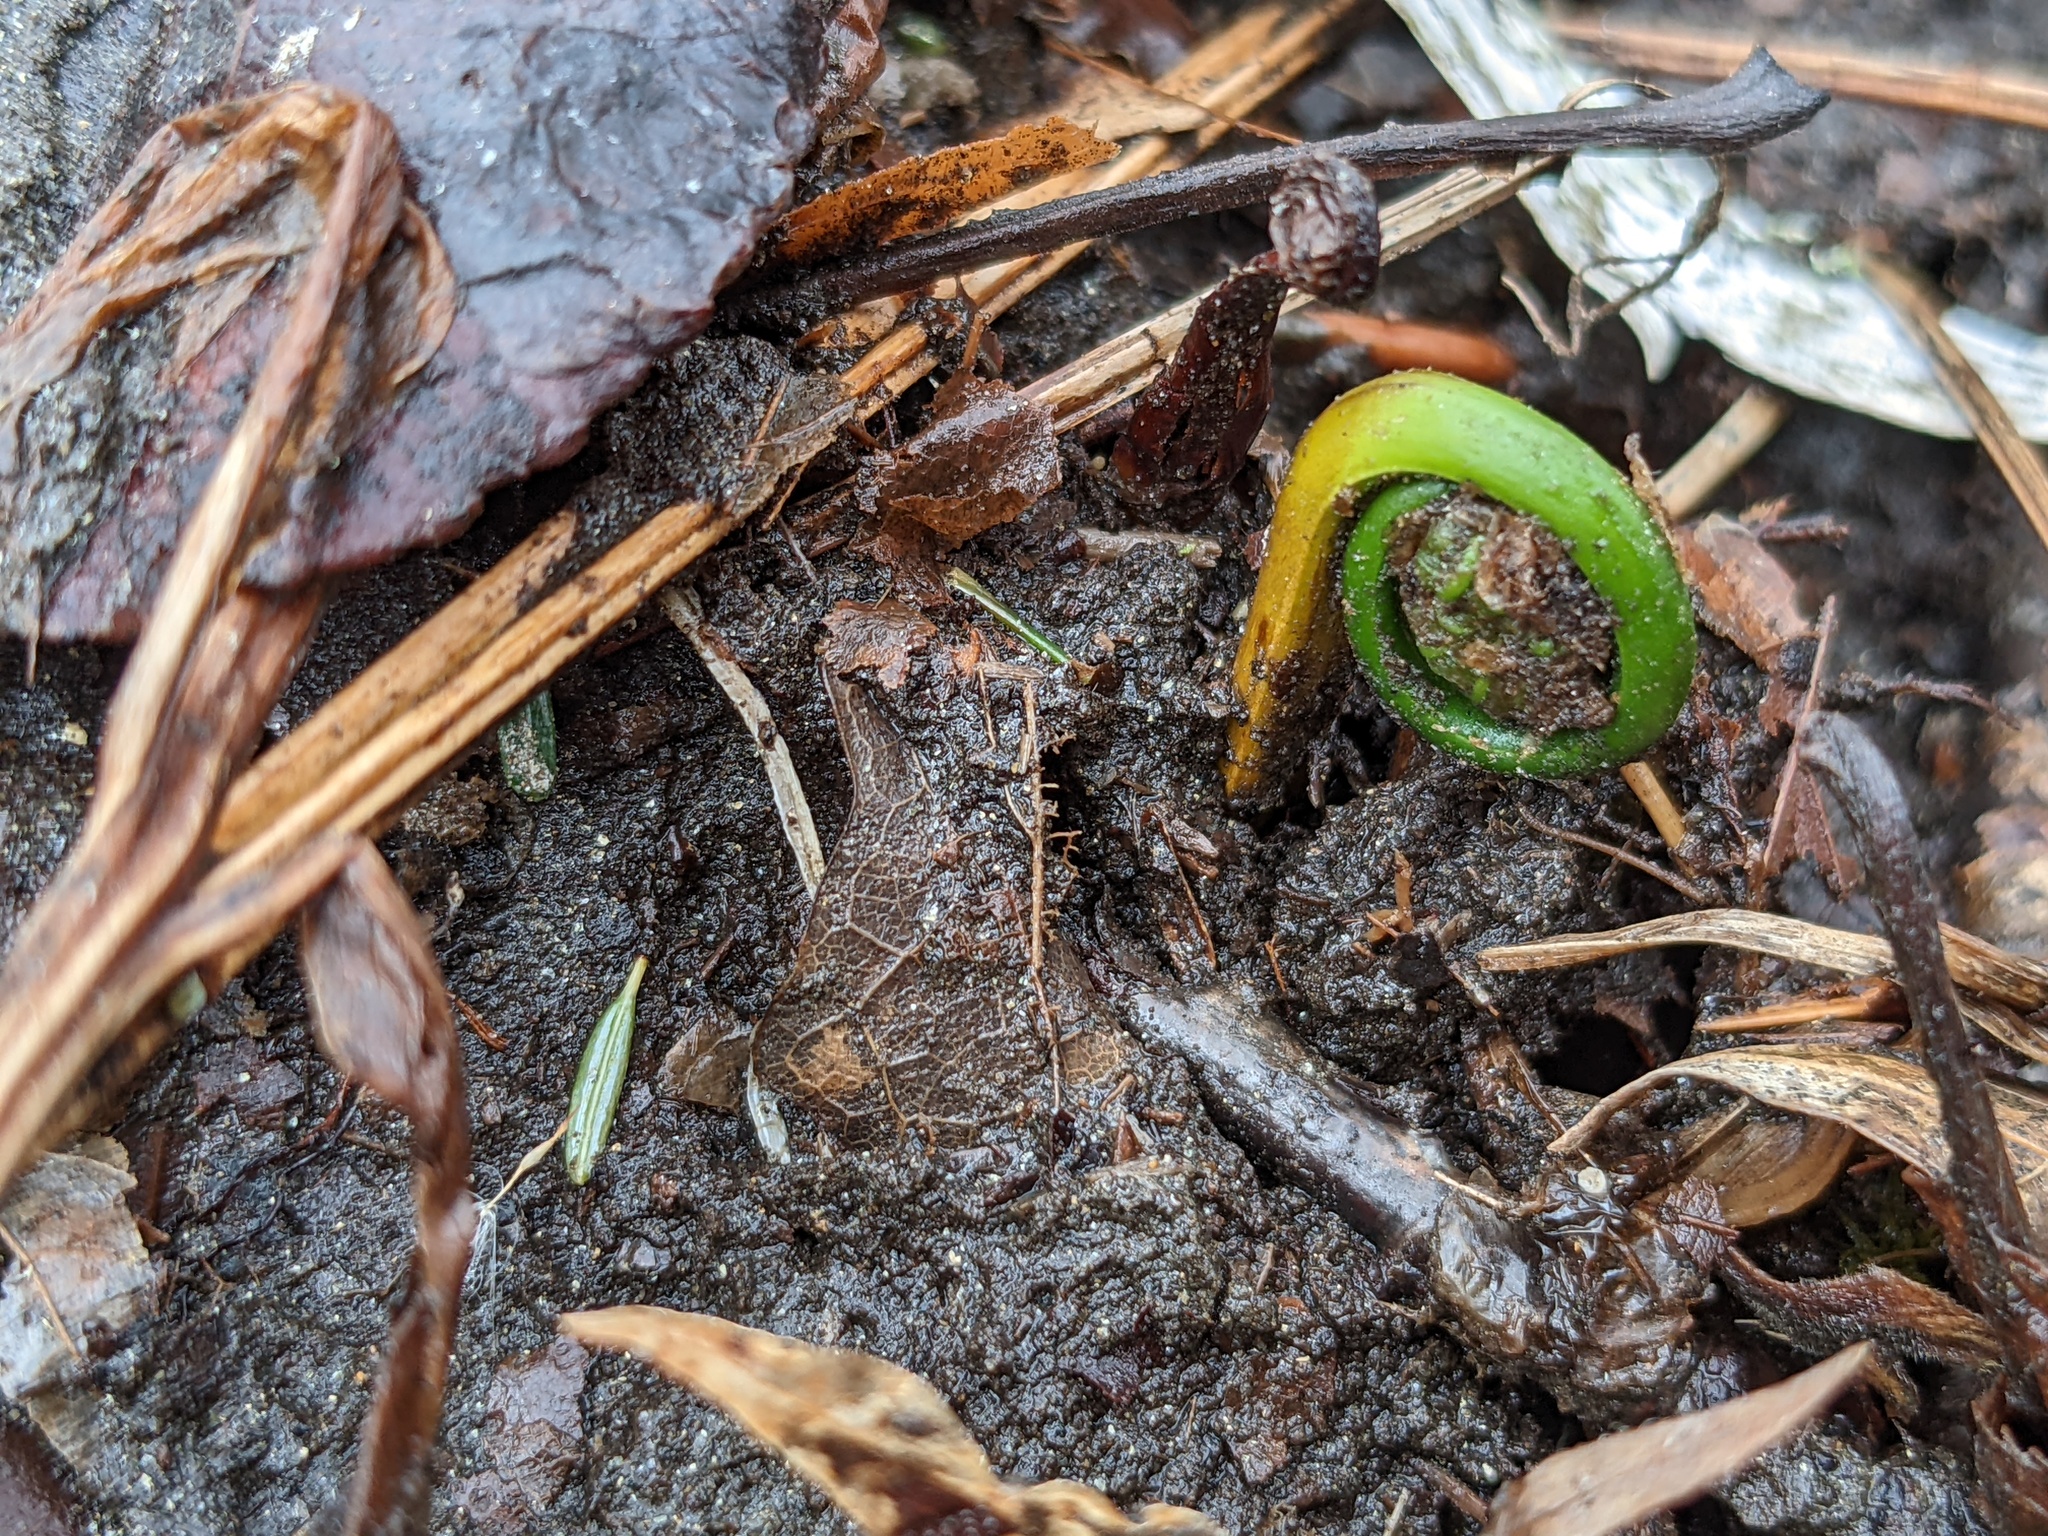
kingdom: Plantae
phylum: Tracheophyta
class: Polypodiopsida
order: Polypodiales
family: Onocleaceae
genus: Matteuccia
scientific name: Matteuccia struthiopteris
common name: Ostrich fern
